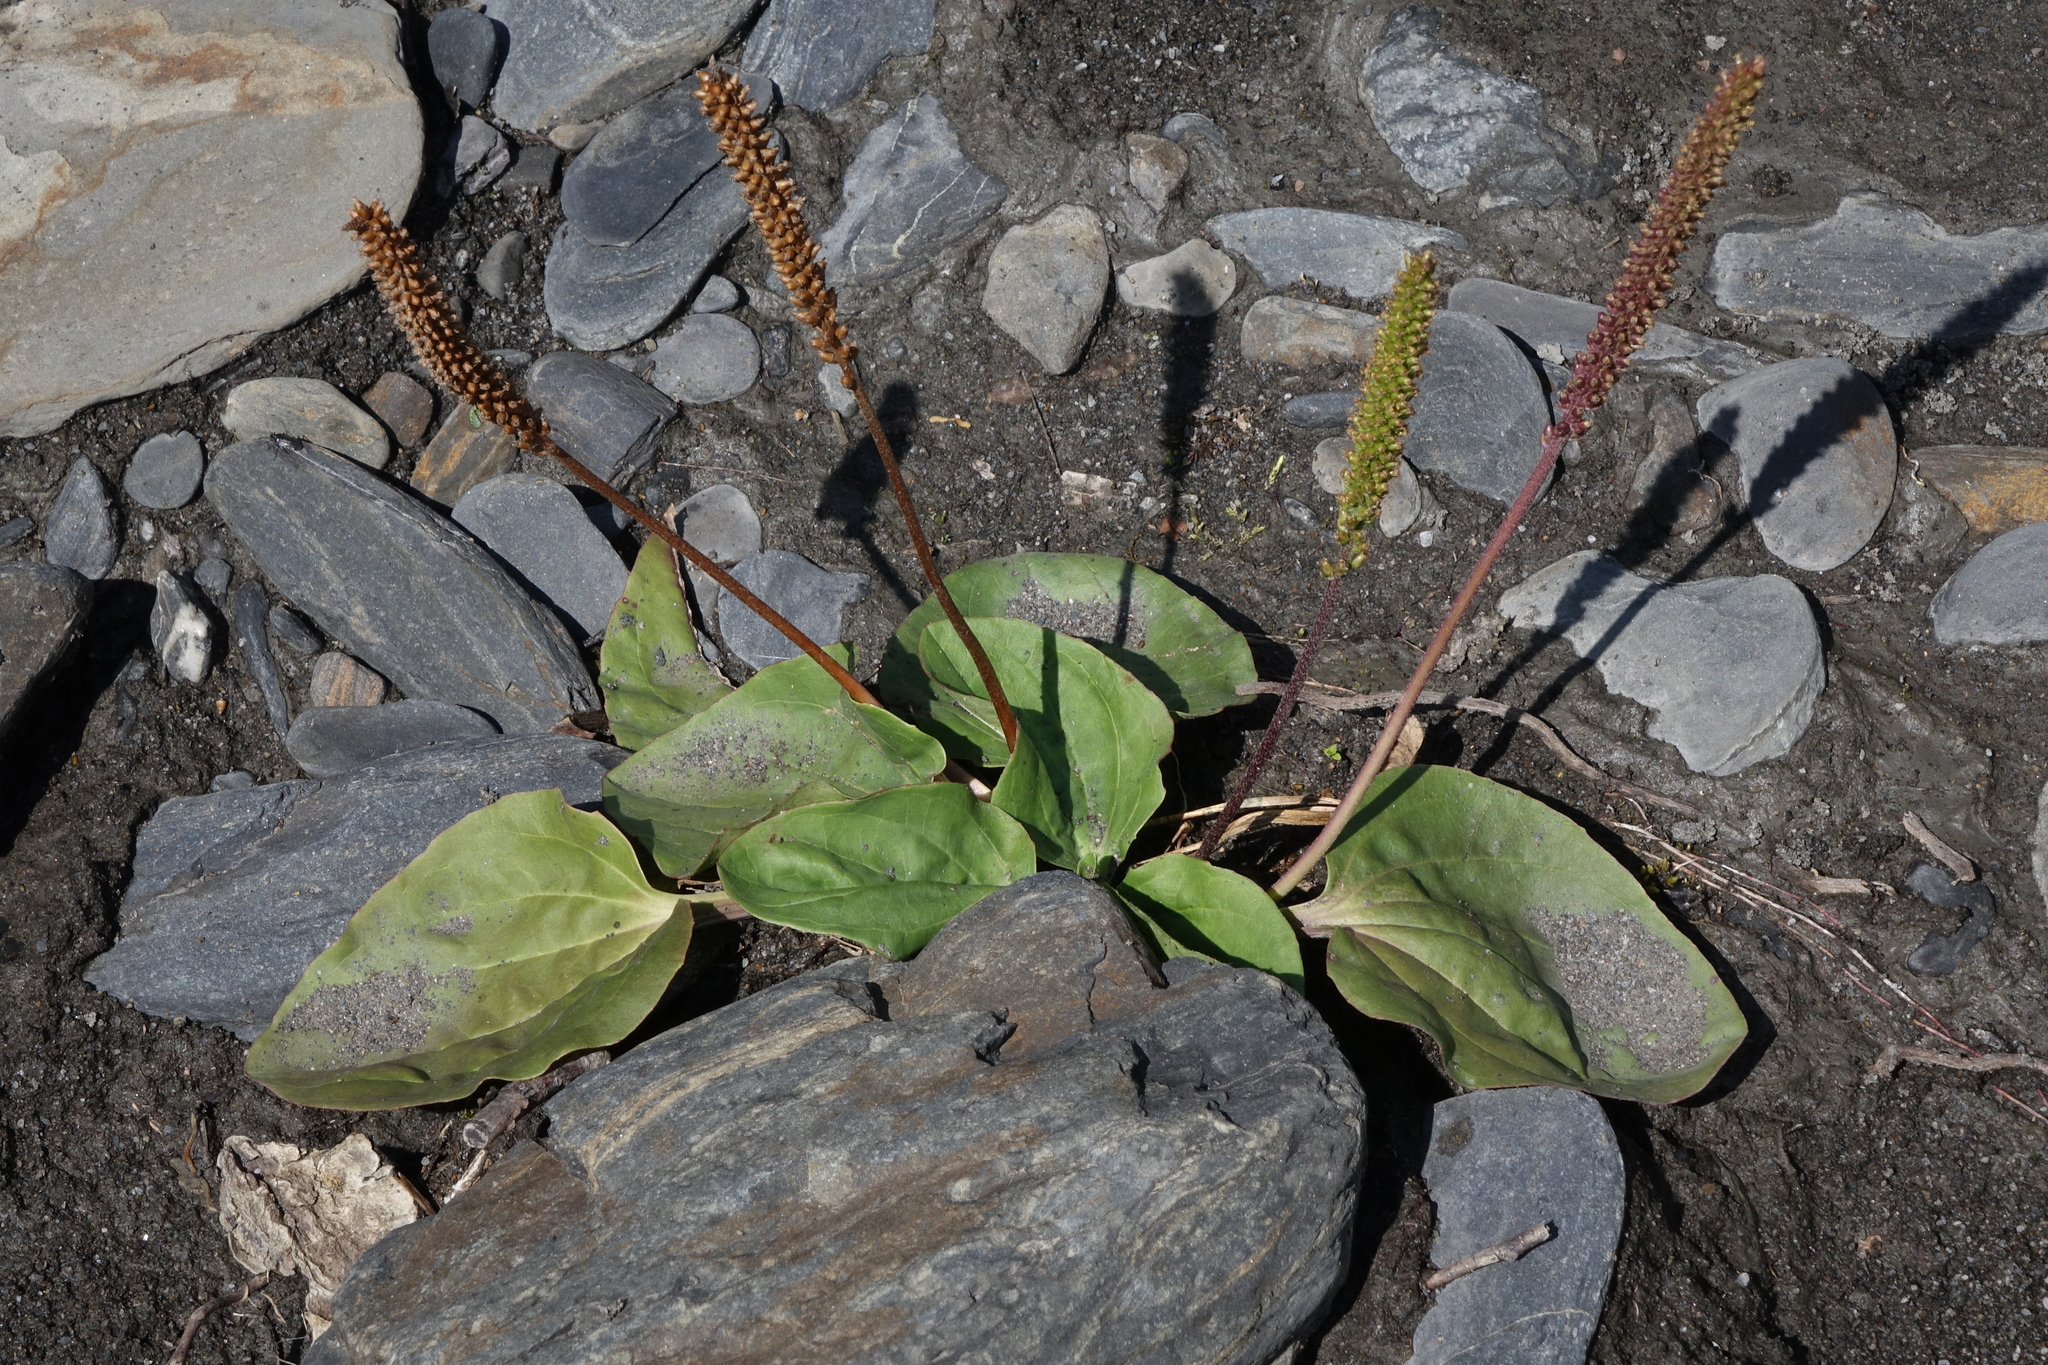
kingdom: Plantae
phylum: Tracheophyta
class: Magnoliopsida
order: Lamiales
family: Plantaginaceae
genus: Plantago
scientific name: Plantago major
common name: Common plantain
